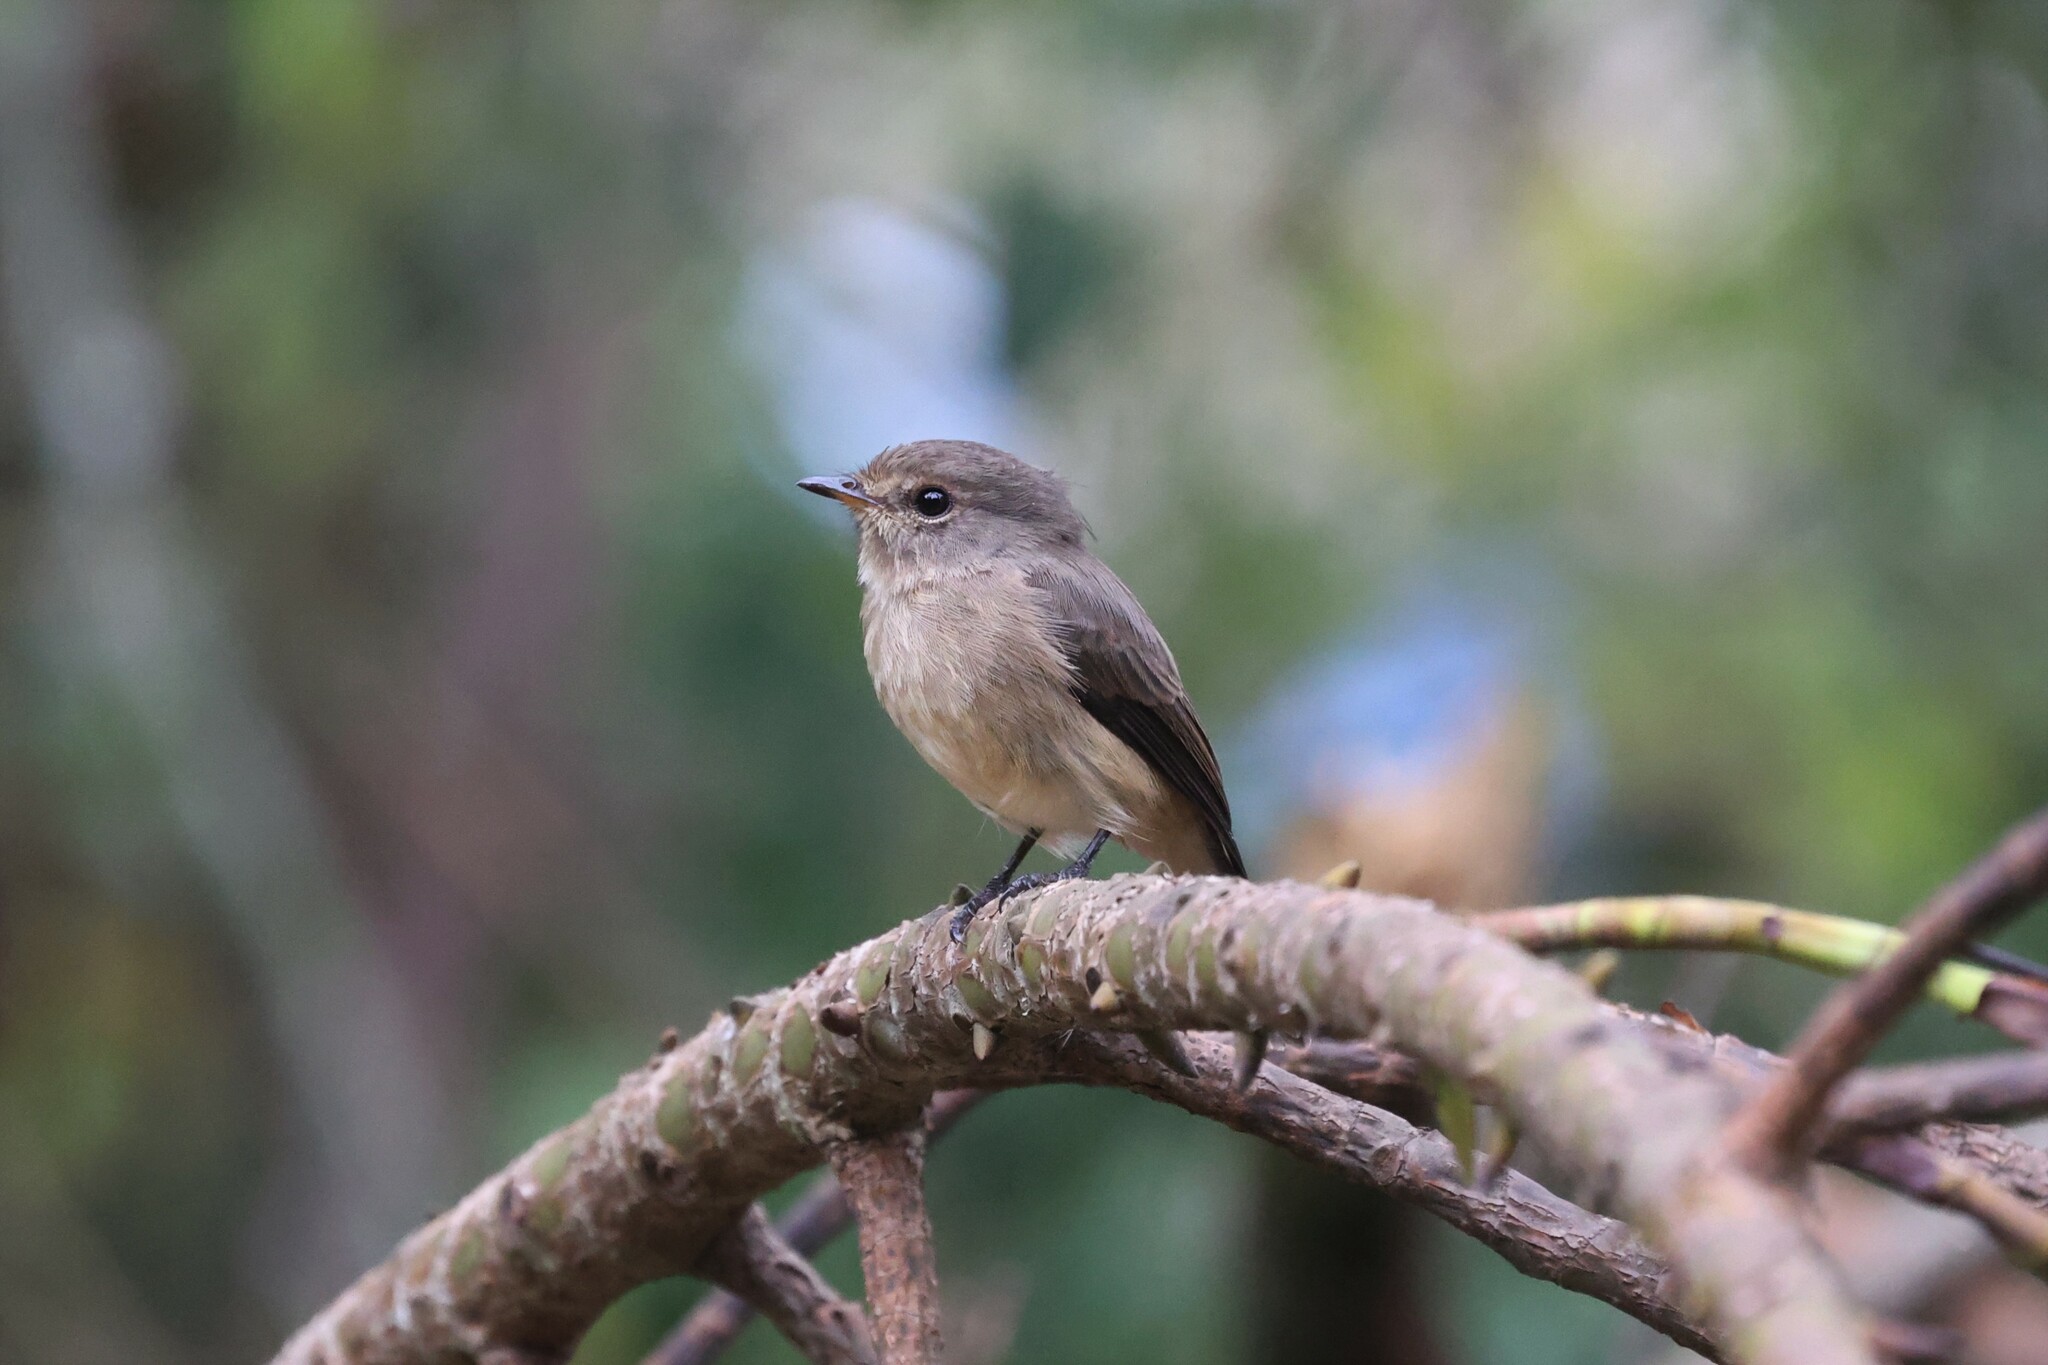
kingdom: Animalia
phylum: Chordata
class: Aves
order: Passeriformes
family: Muscicapidae
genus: Muscicapa
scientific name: Muscicapa adusta
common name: African dusky flycatcher
